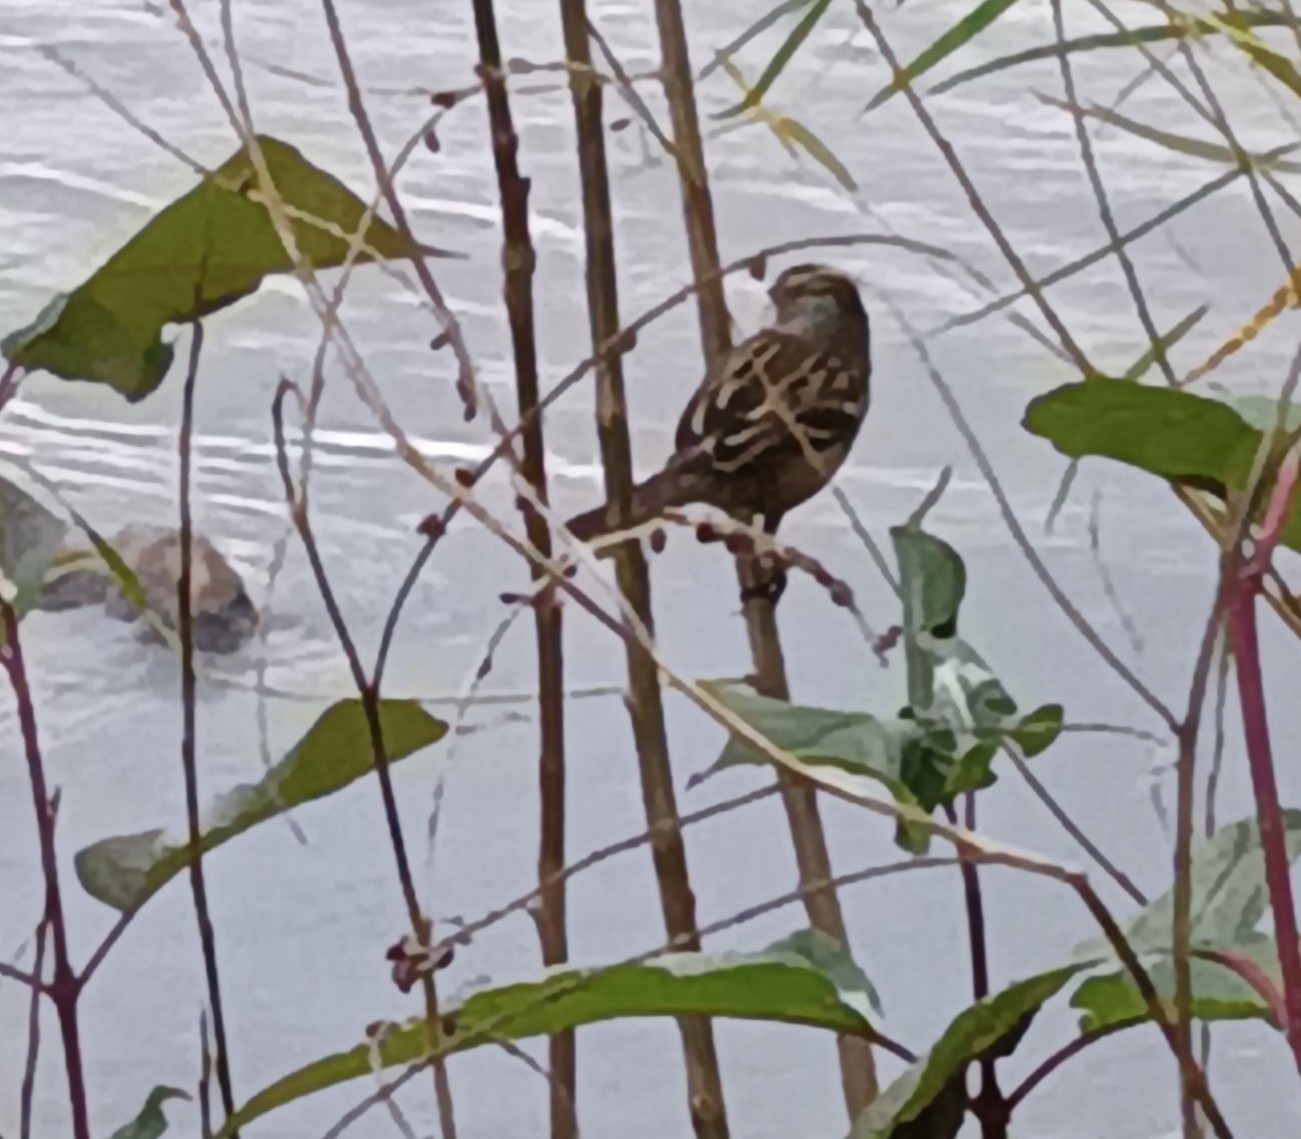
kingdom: Animalia
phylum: Chordata
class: Aves
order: Passeriformes
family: Passerellidae
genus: Zonotrichia
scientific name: Zonotrichia leucophrys
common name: White-crowned sparrow
